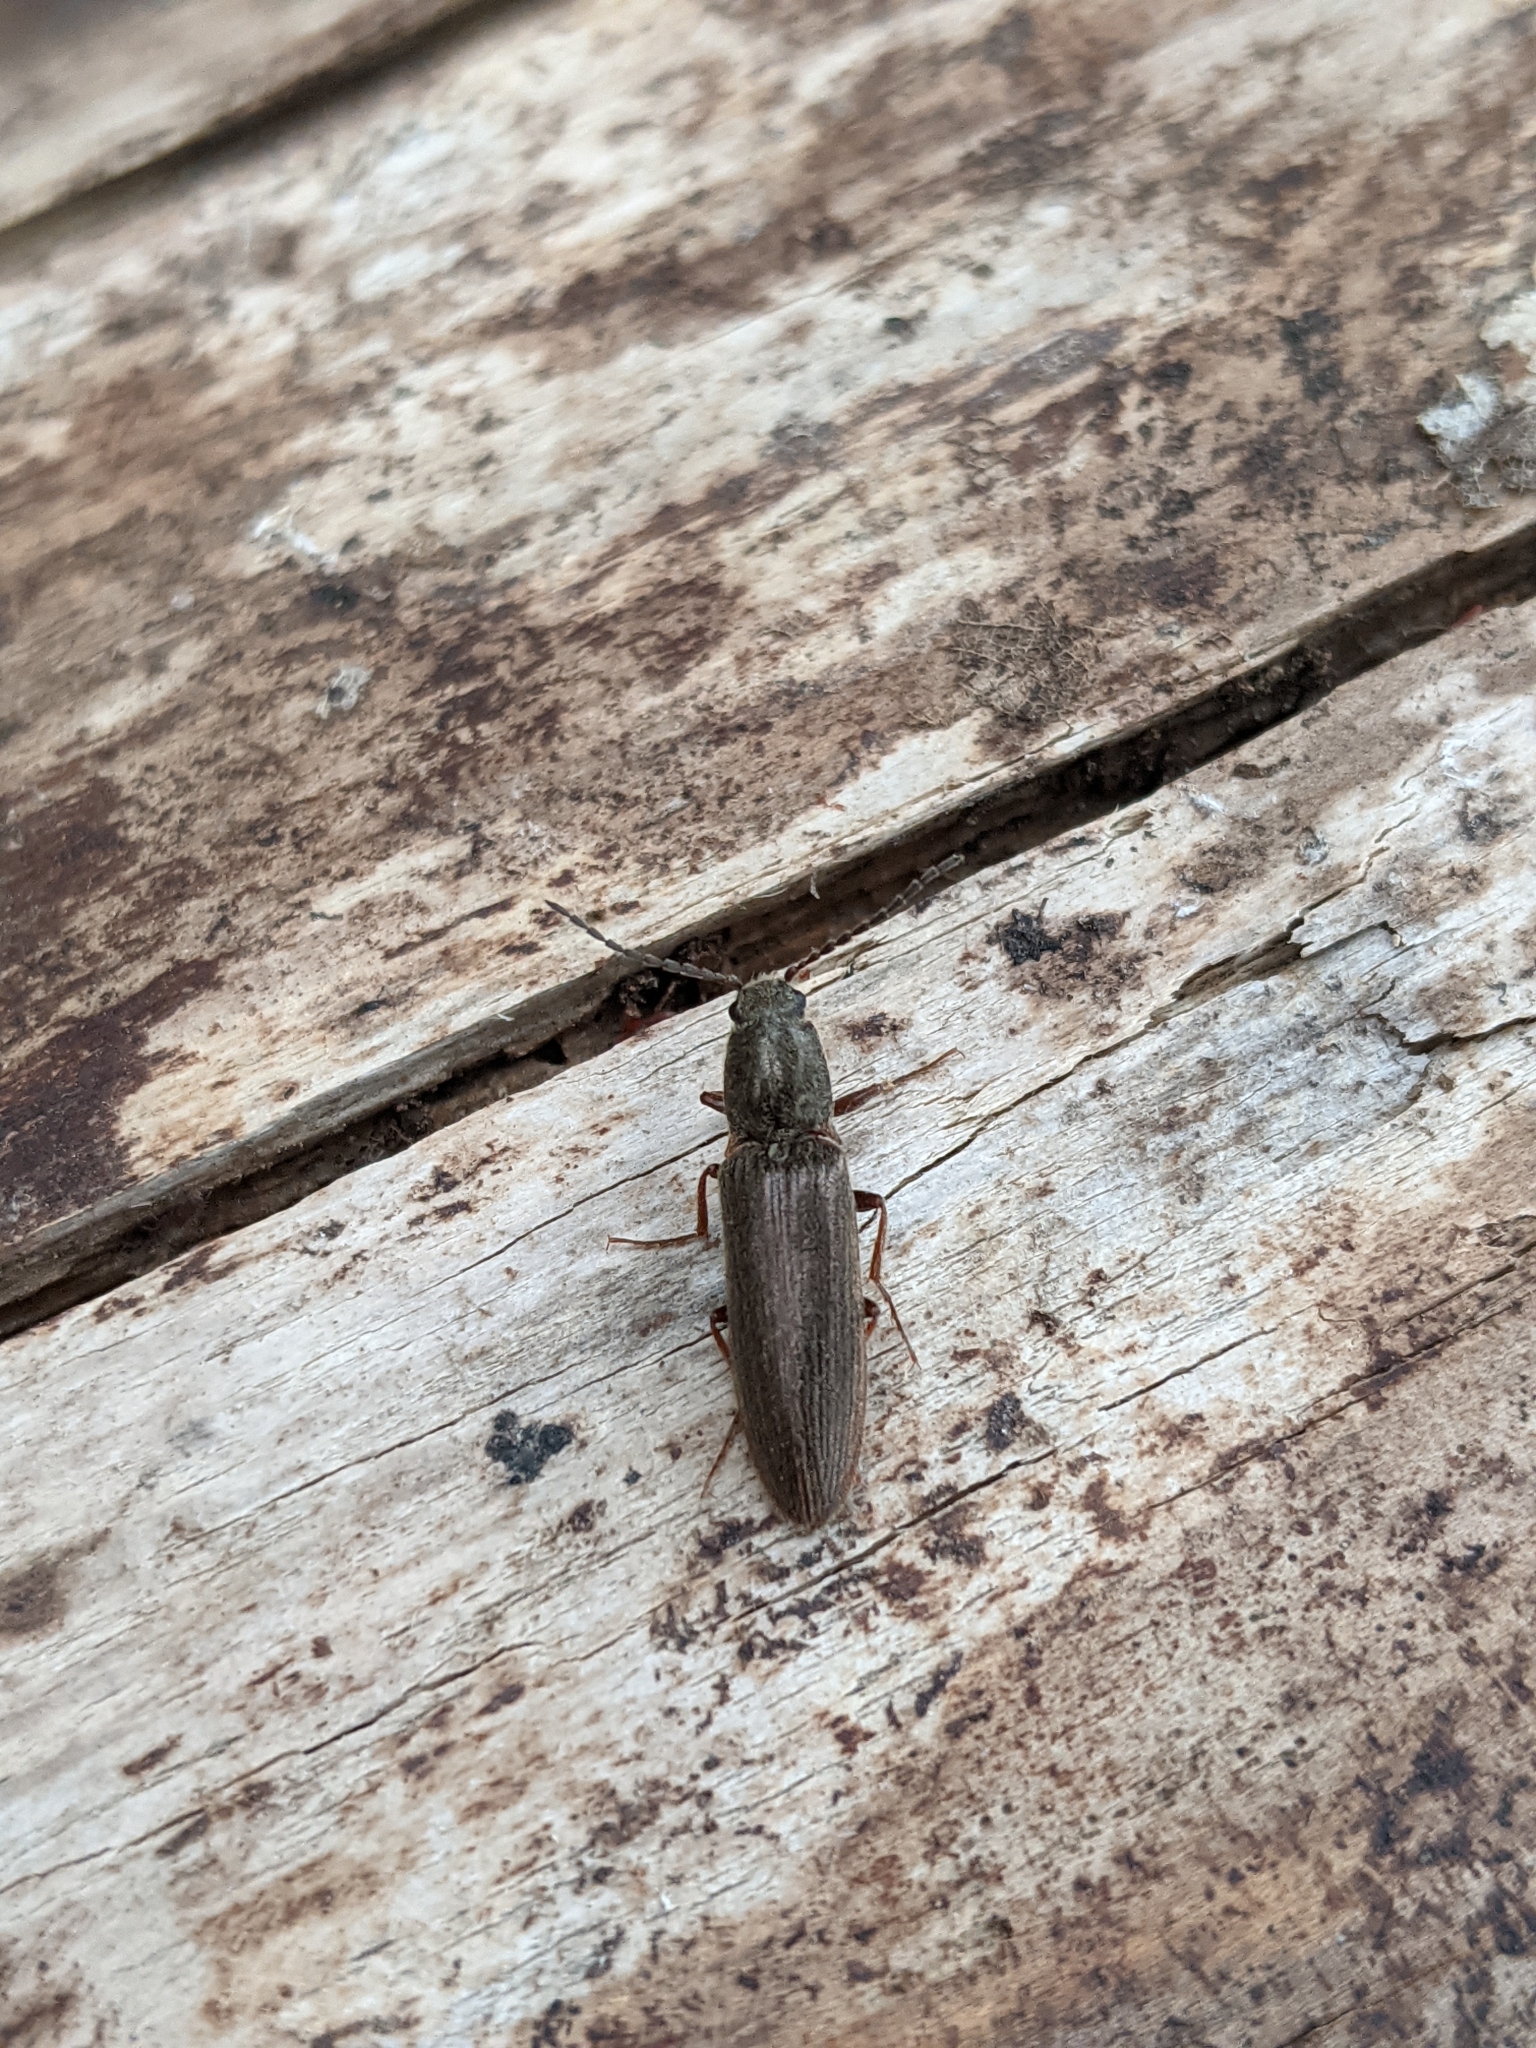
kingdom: Animalia
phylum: Arthropoda
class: Insecta
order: Coleoptera
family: Elateridae
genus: Sylvanelater
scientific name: Sylvanelater cylindriformis
